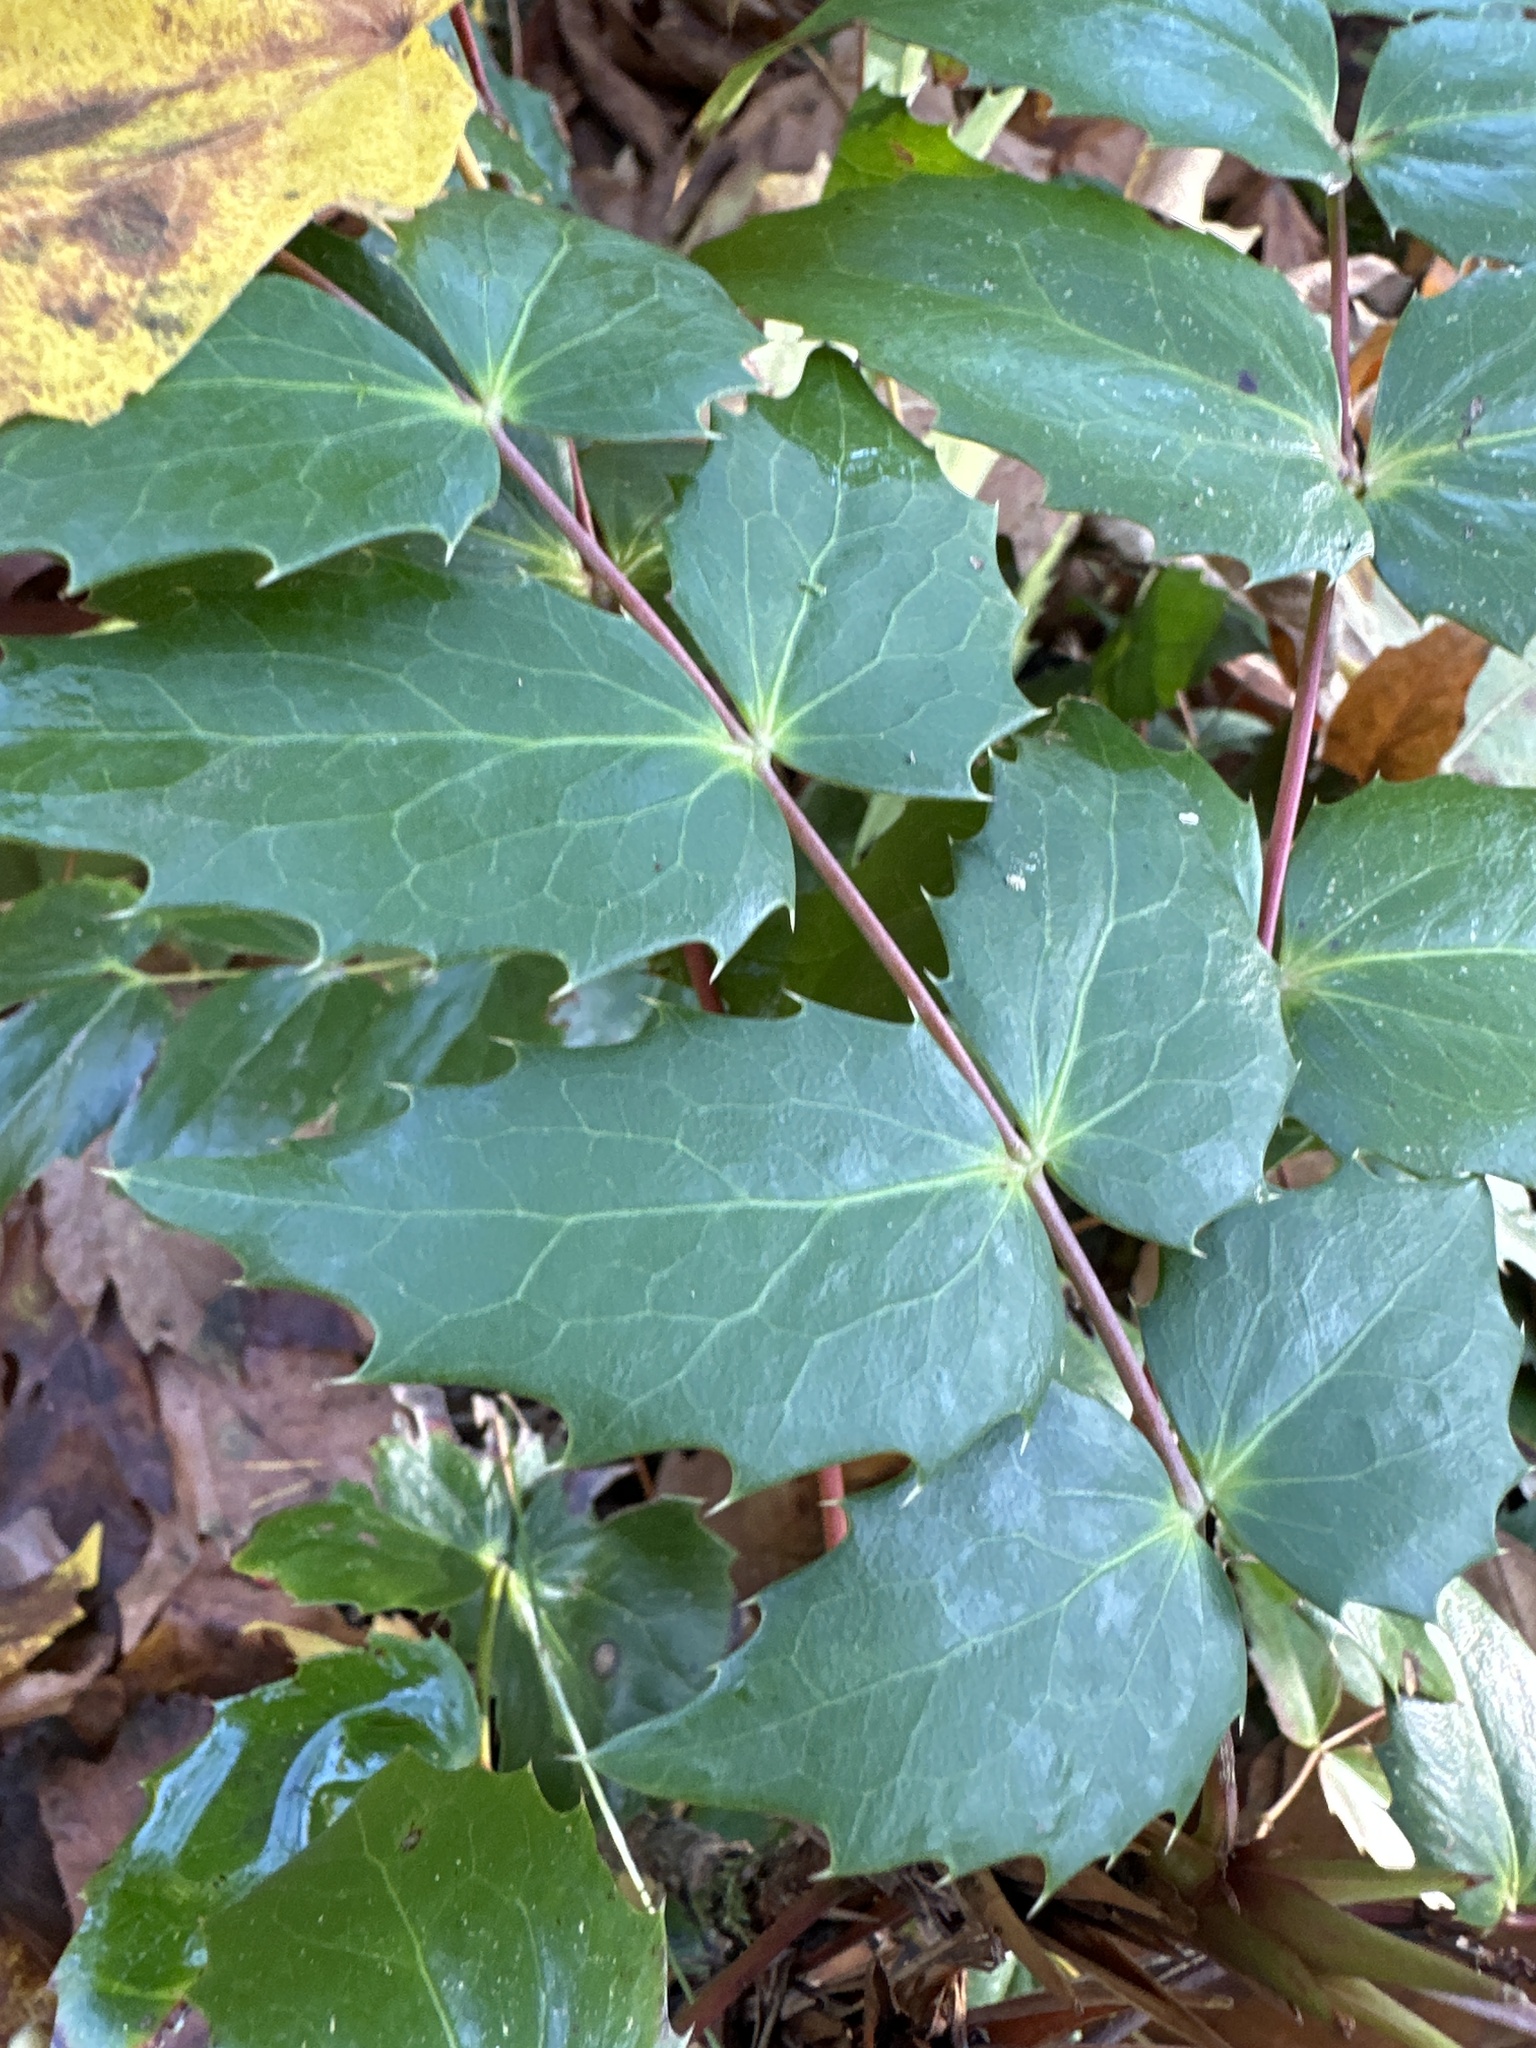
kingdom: Plantae
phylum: Tracheophyta
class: Magnoliopsida
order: Ranunculales
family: Berberidaceae
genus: Mahonia
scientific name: Mahonia nervosa
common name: Cascade oregon-grape
